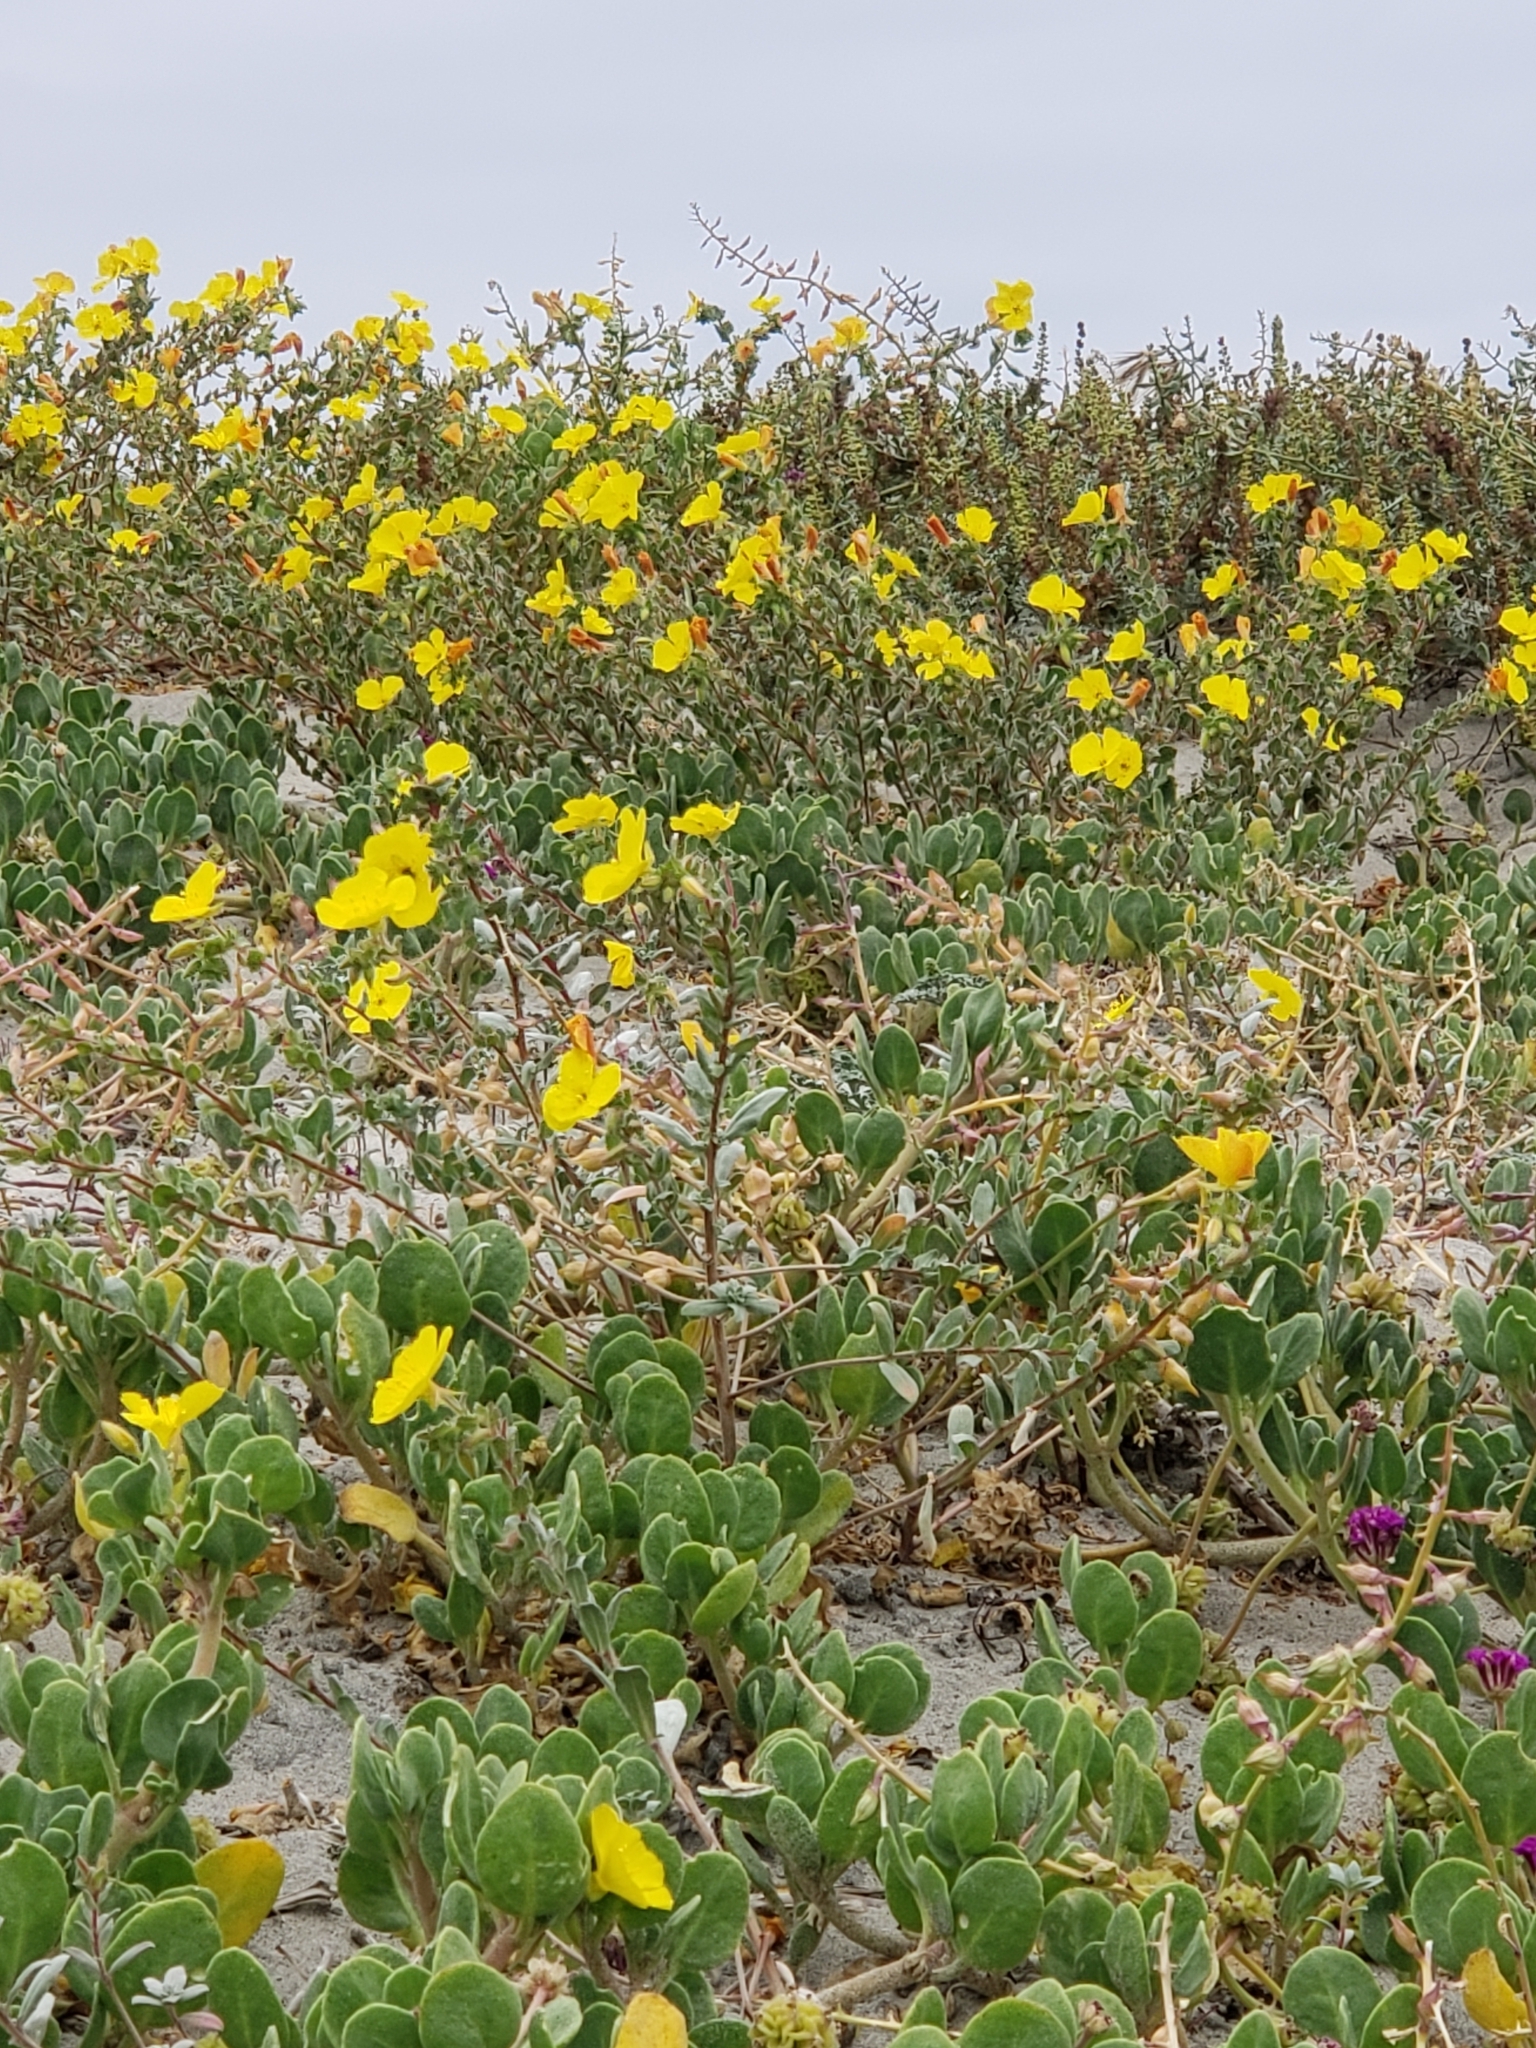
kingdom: Plantae
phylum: Tracheophyta
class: Magnoliopsida
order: Myrtales
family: Onagraceae
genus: Camissoniopsis
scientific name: Camissoniopsis cheiranthifolia
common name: Beach suncup
